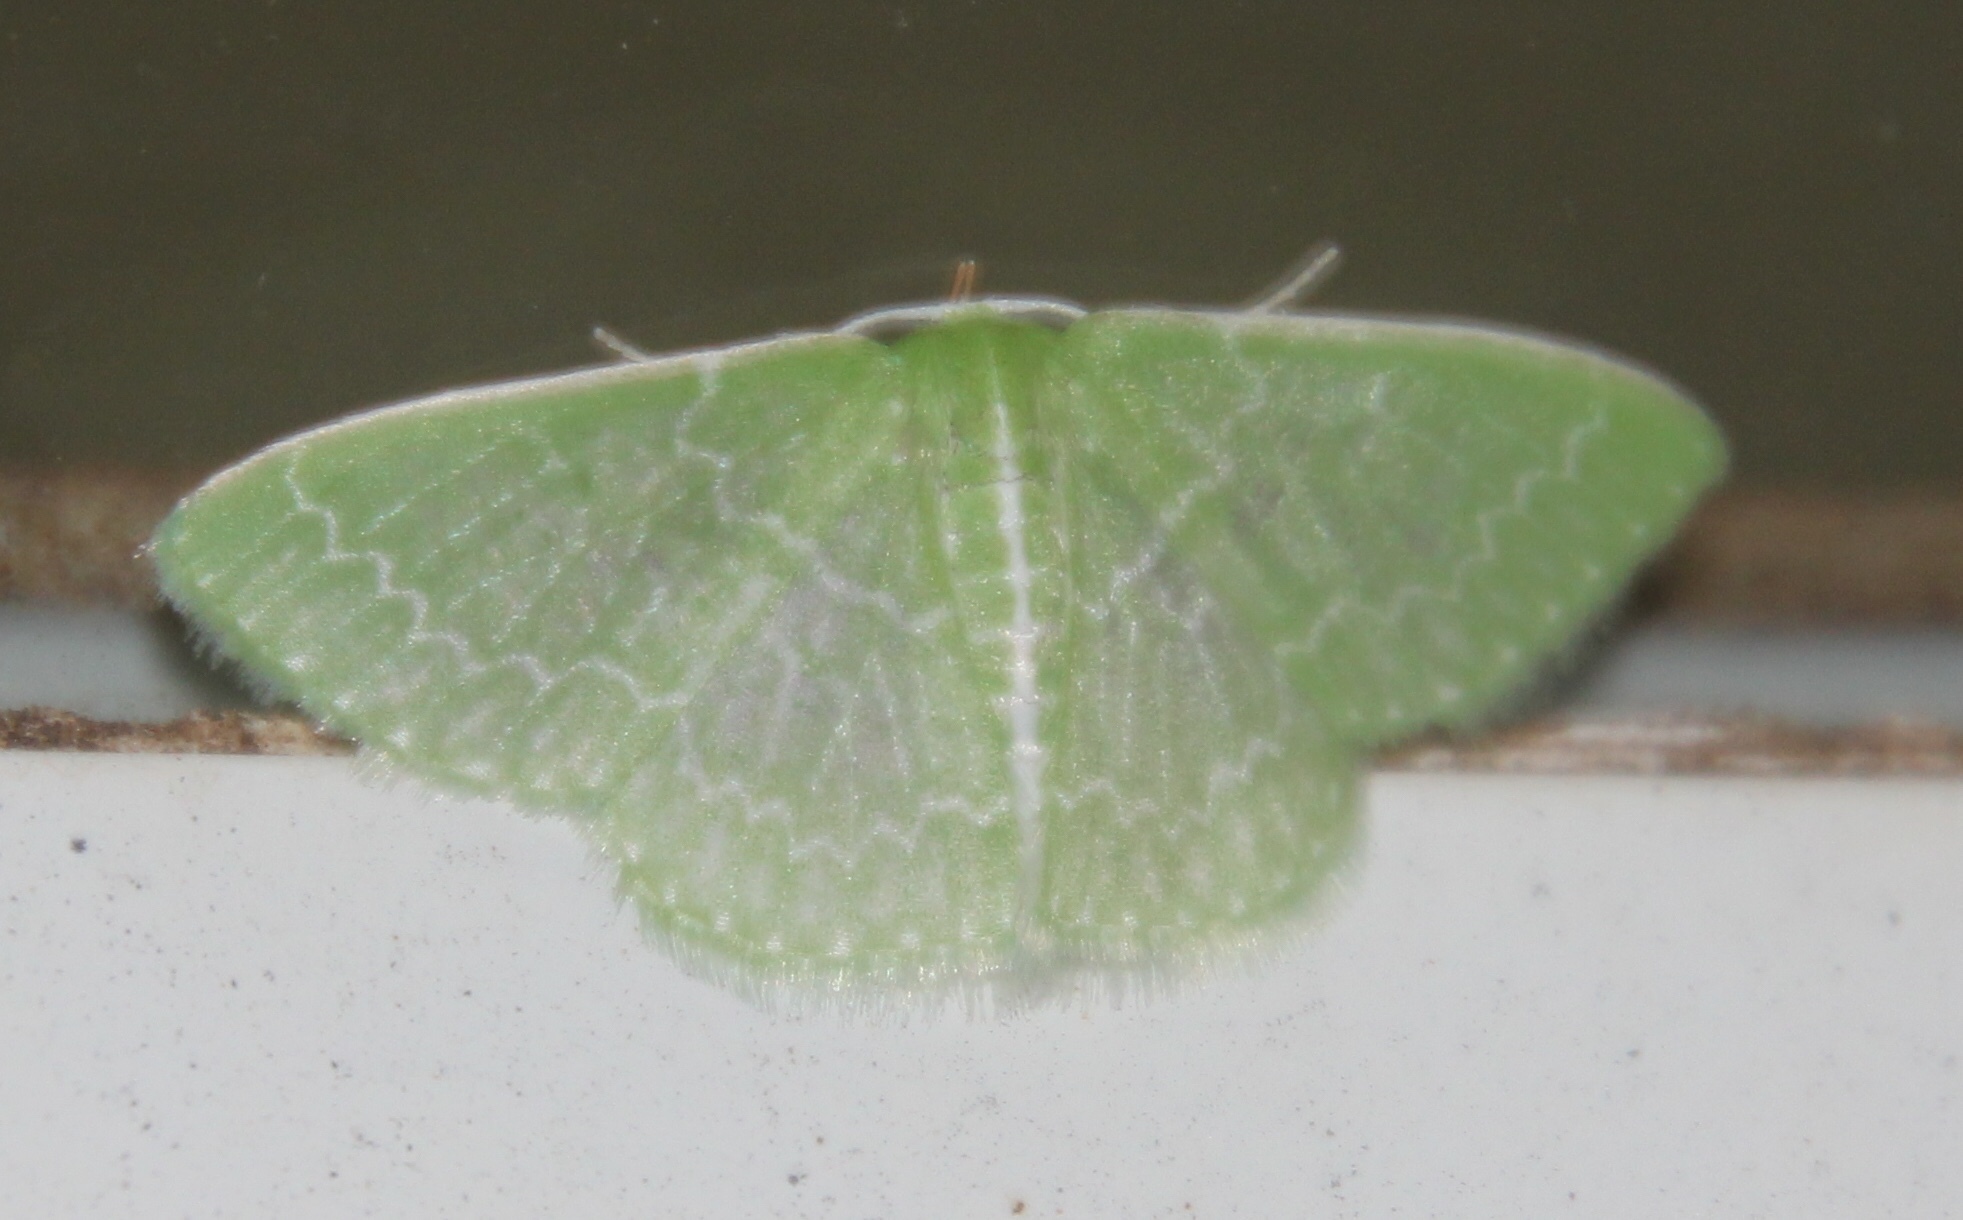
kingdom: Animalia
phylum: Arthropoda
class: Insecta
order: Lepidoptera
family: Geometridae
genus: Synchlora
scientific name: Synchlora frondaria
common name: Southern emerald
